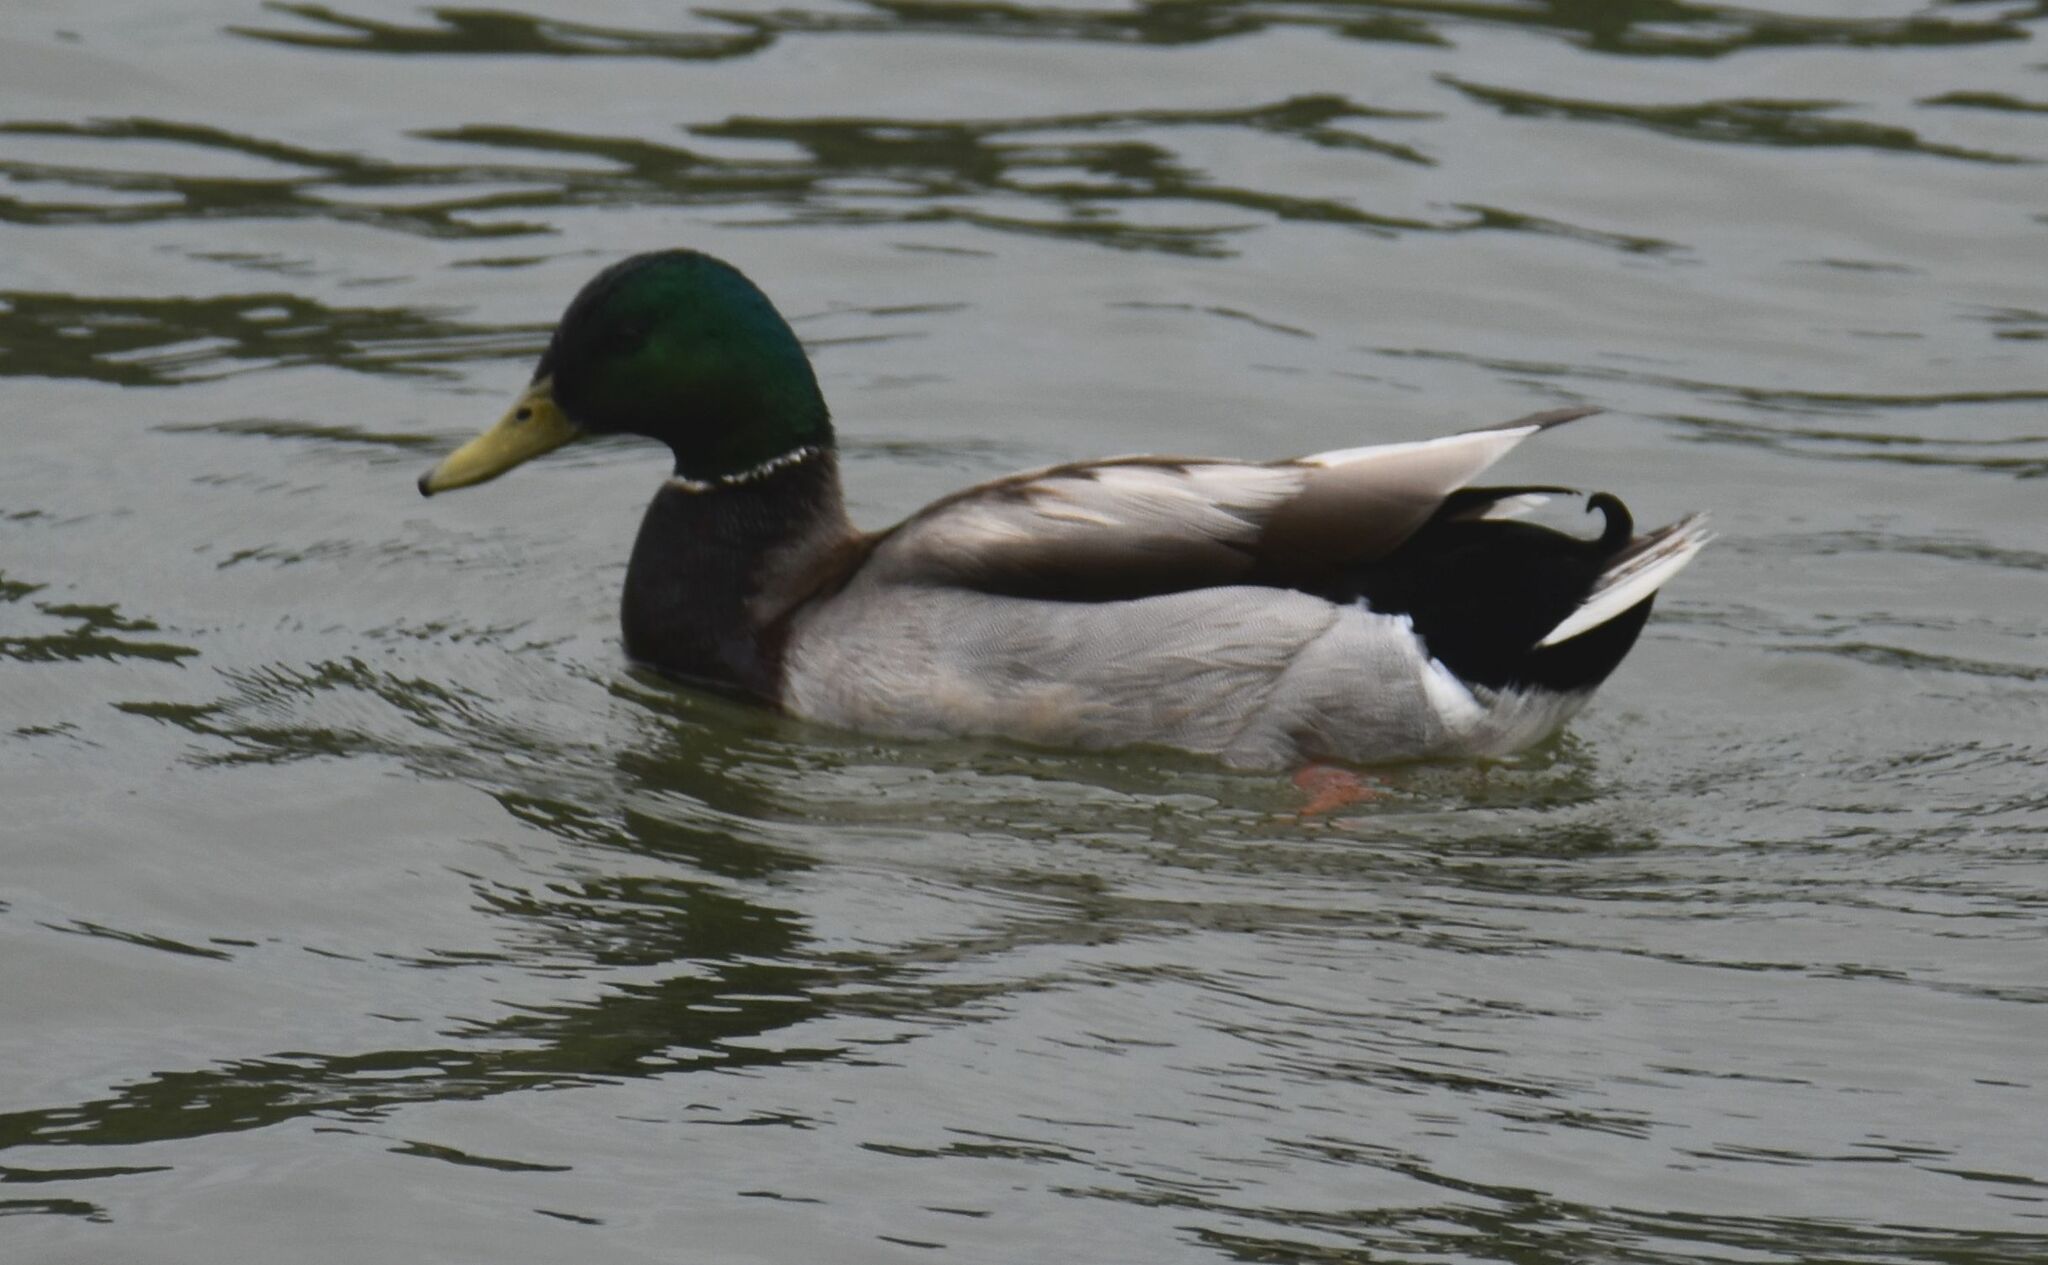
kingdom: Animalia
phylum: Chordata
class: Aves
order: Anseriformes
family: Anatidae
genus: Anas
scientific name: Anas platyrhynchos
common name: Mallard
